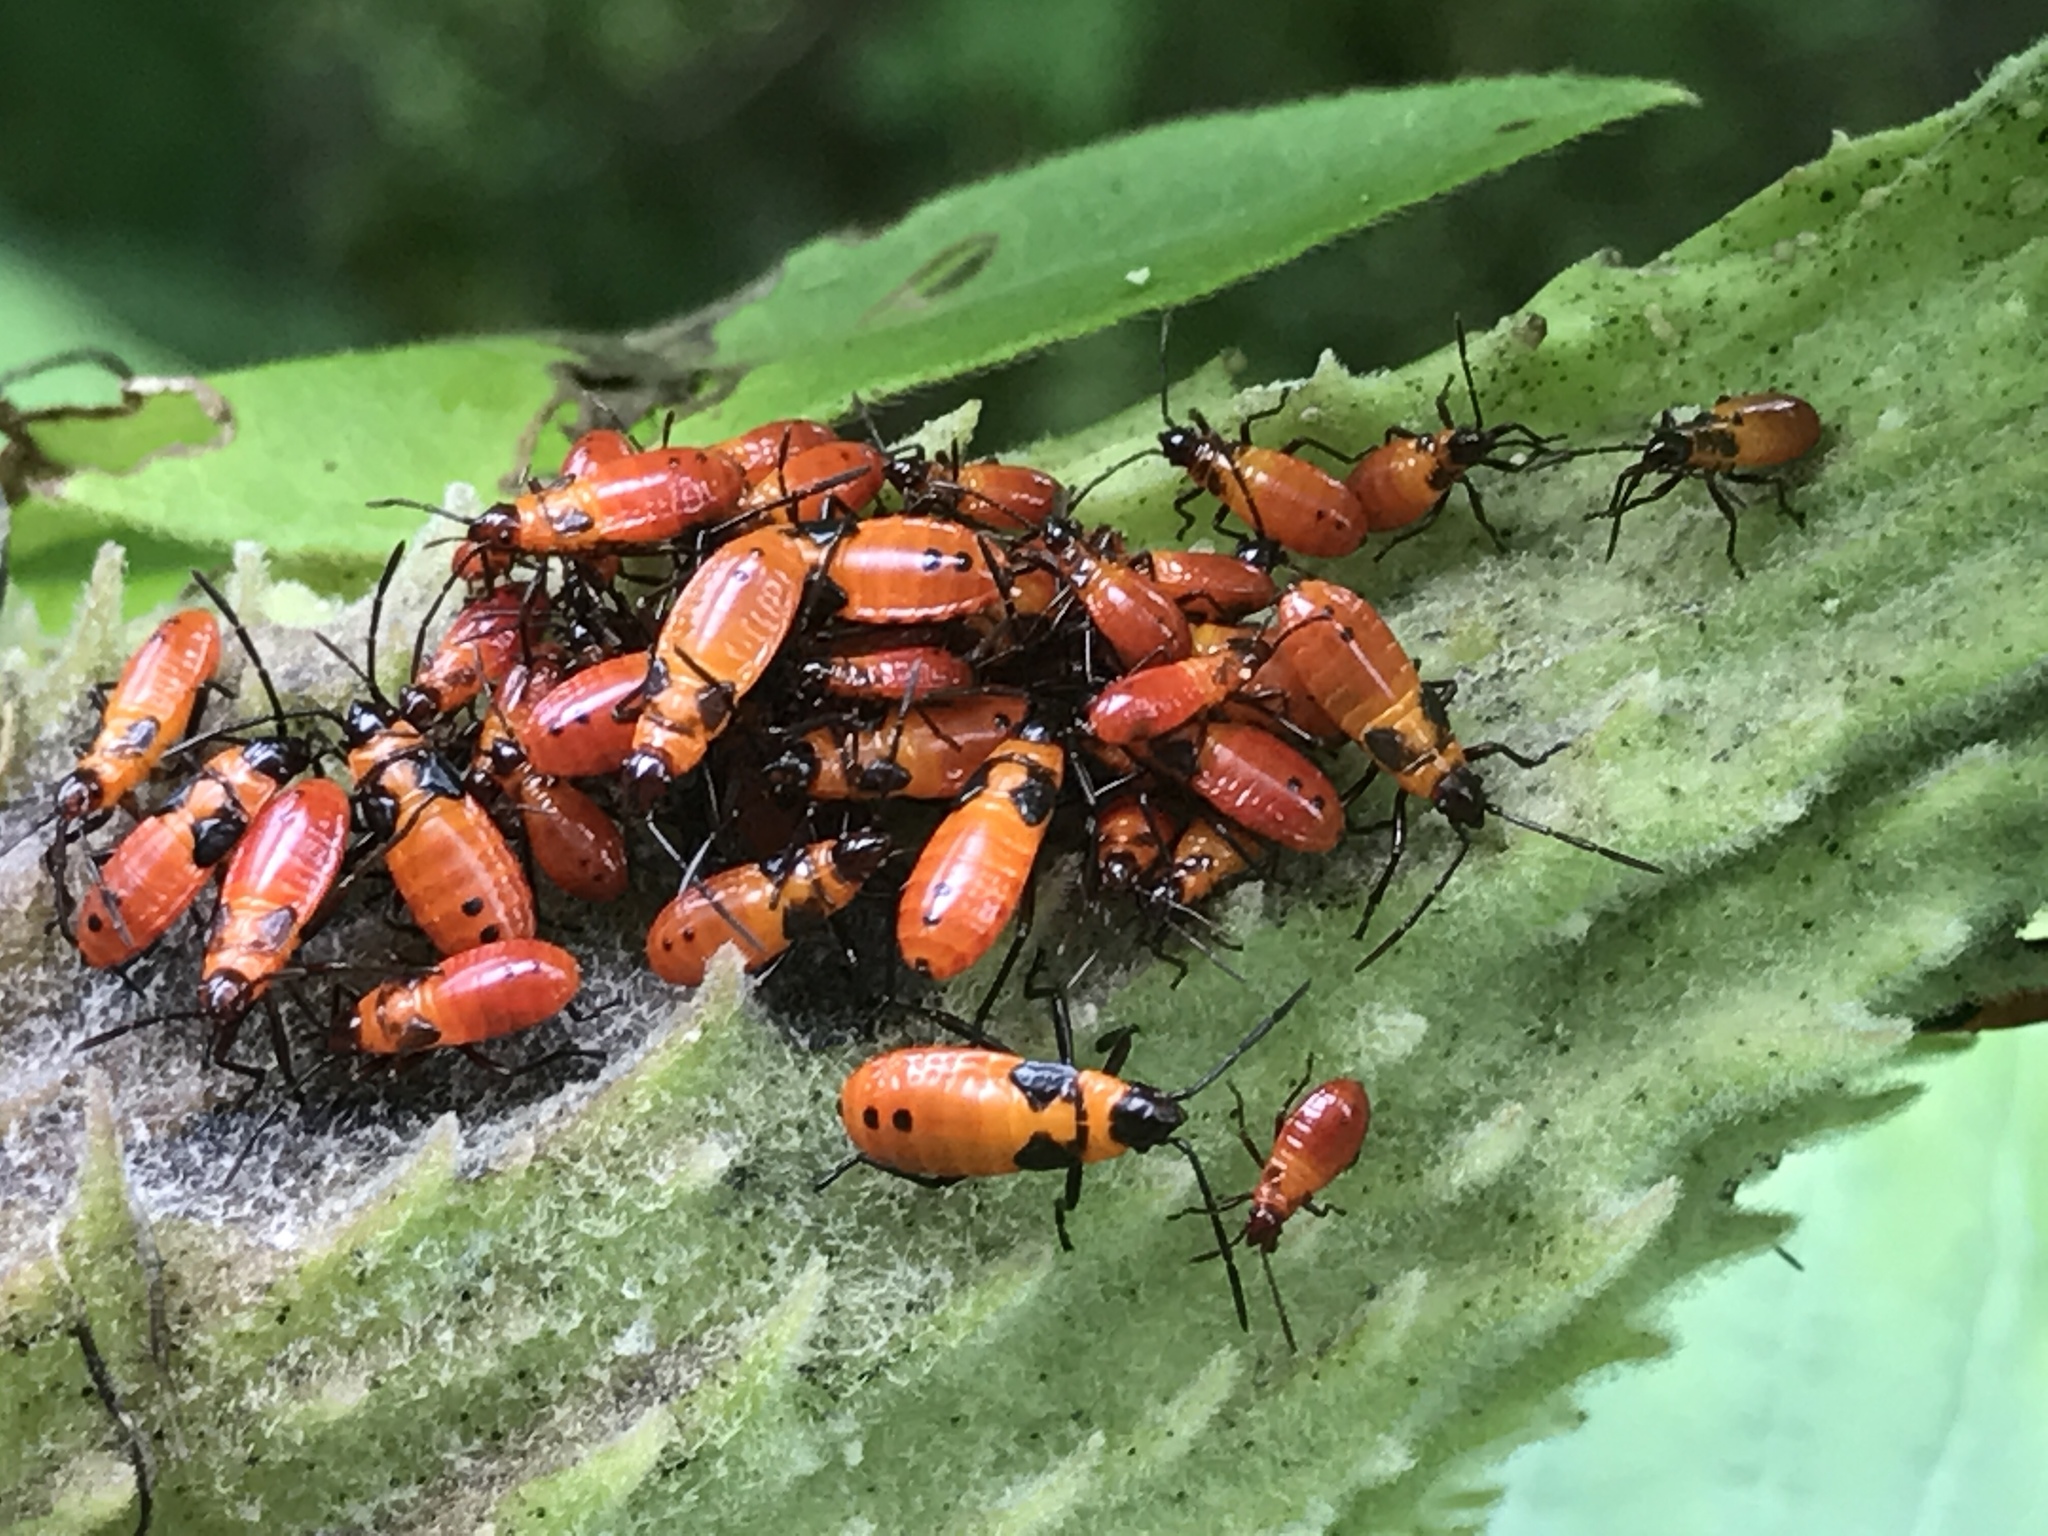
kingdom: Animalia
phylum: Arthropoda
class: Insecta
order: Hemiptera
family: Lygaeidae
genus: Oncopeltus
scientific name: Oncopeltus fasciatus
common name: Large milkweed bug
